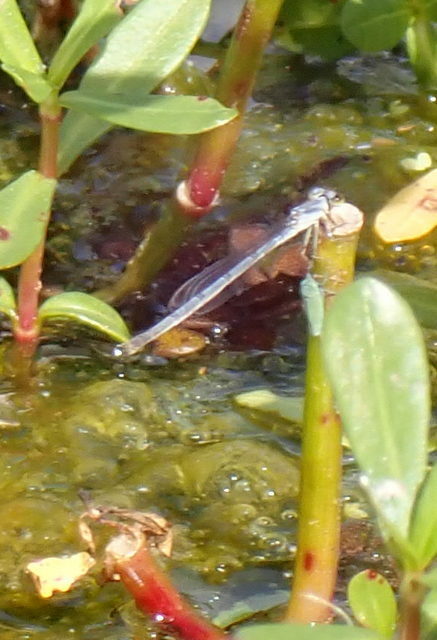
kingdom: Animalia
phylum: Arthropoda
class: Insecta
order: Odonata
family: Coenagrionidae
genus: Ischnura
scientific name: Ischnura posita
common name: Fragile forktail
